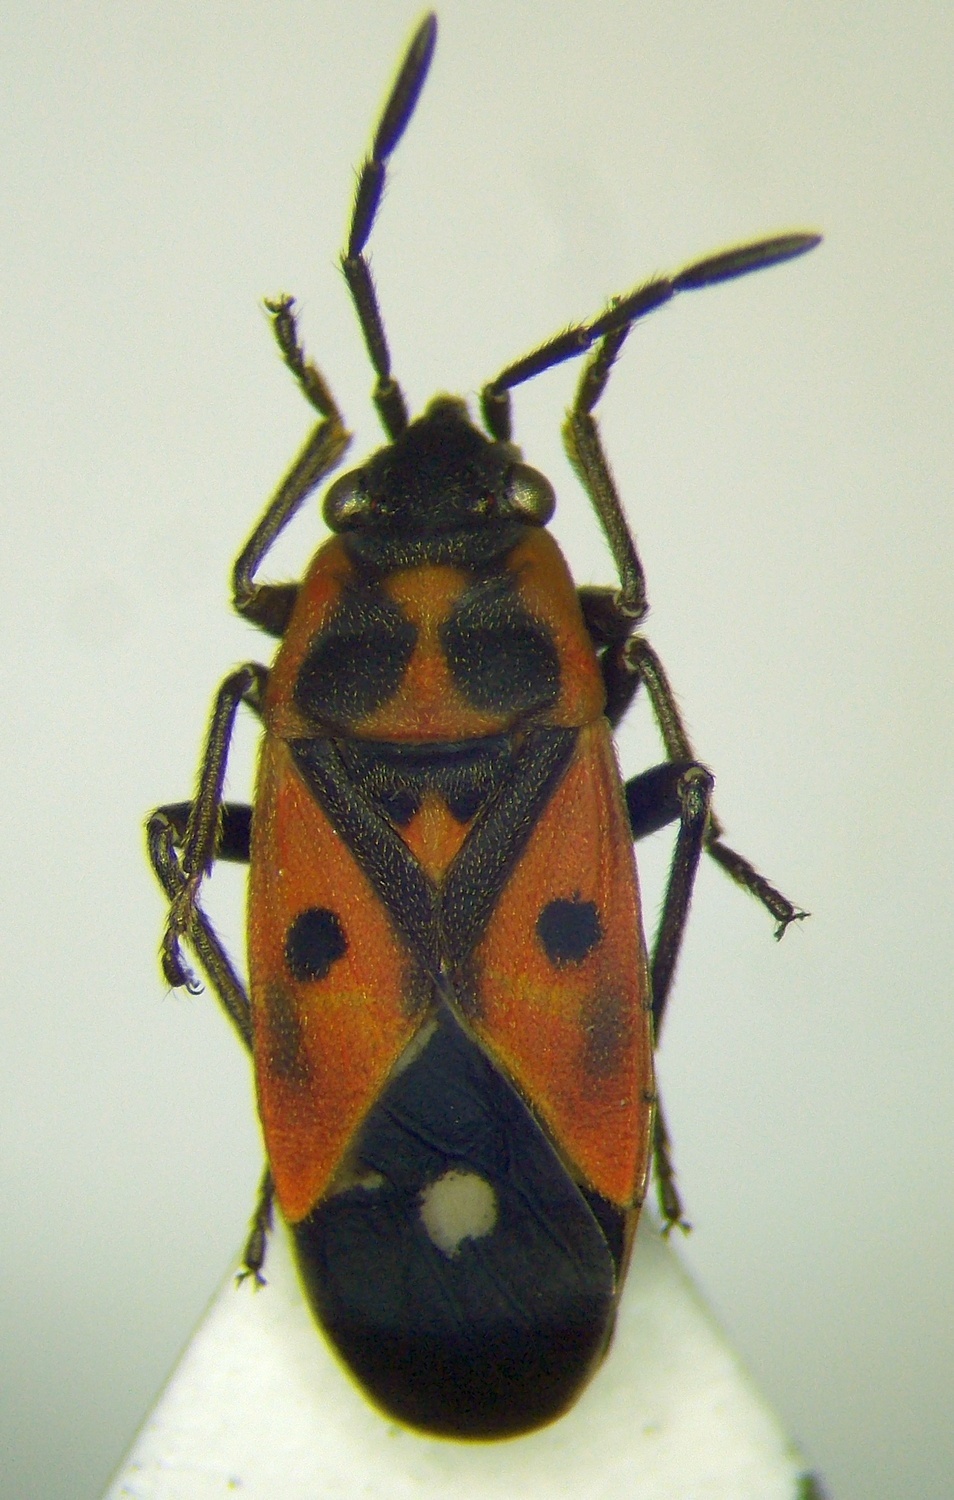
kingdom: Animalia
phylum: Arthropoda
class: Insecta
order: Hemiptera
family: Lygaeidae
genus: Melanocoryphus
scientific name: Melanocoryphus tristrami
